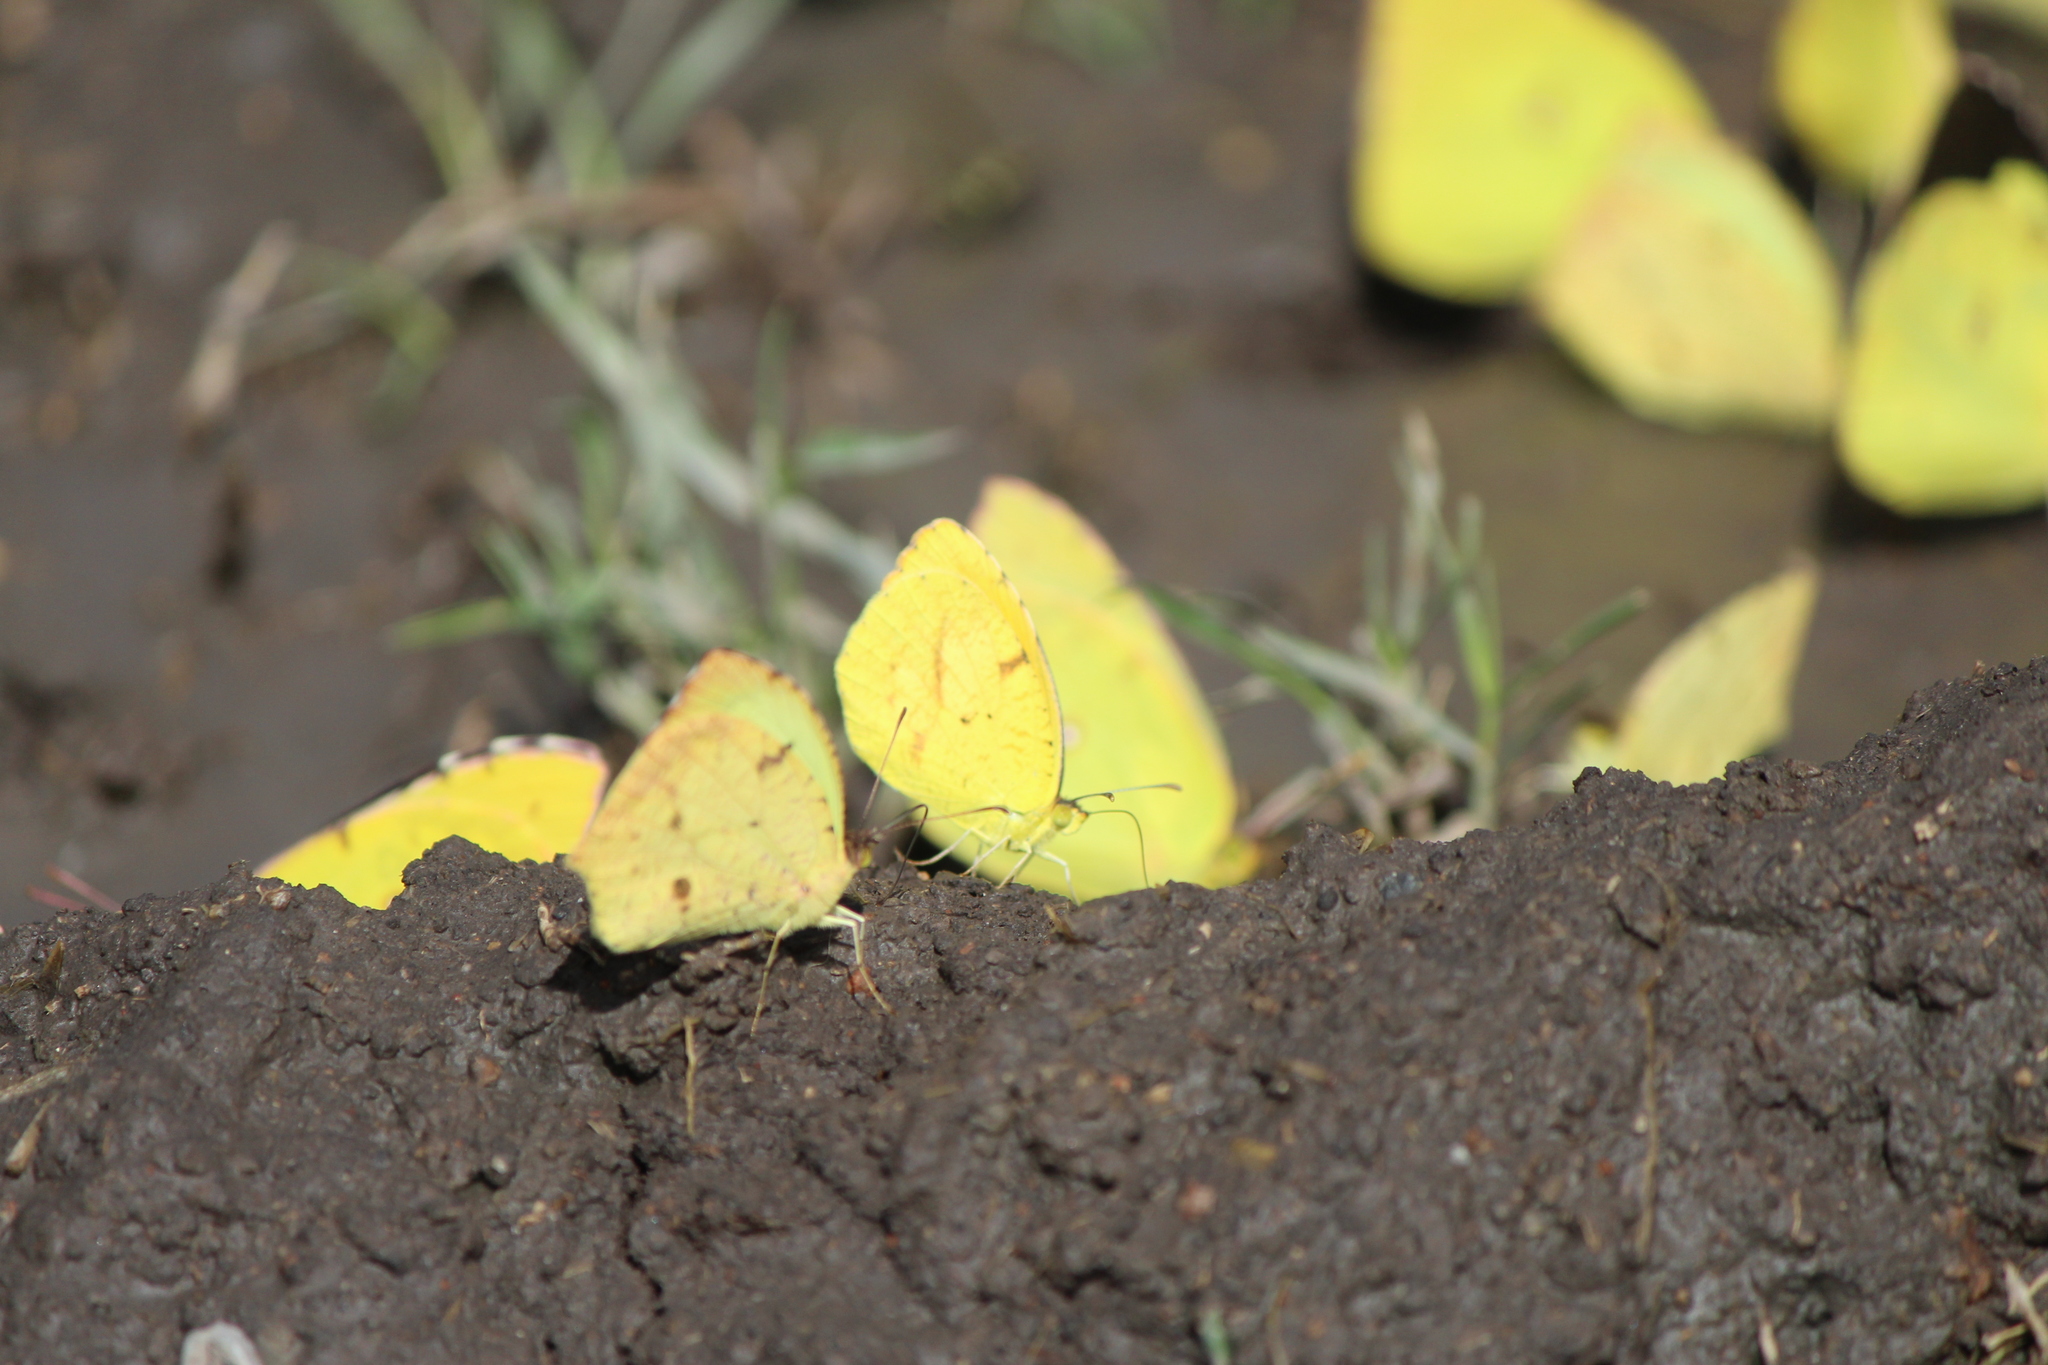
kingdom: Animalia
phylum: Arthropoda
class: Insecta
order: Lepidoptera
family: Pieridae
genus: Abaeis
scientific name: Abaeis salome
